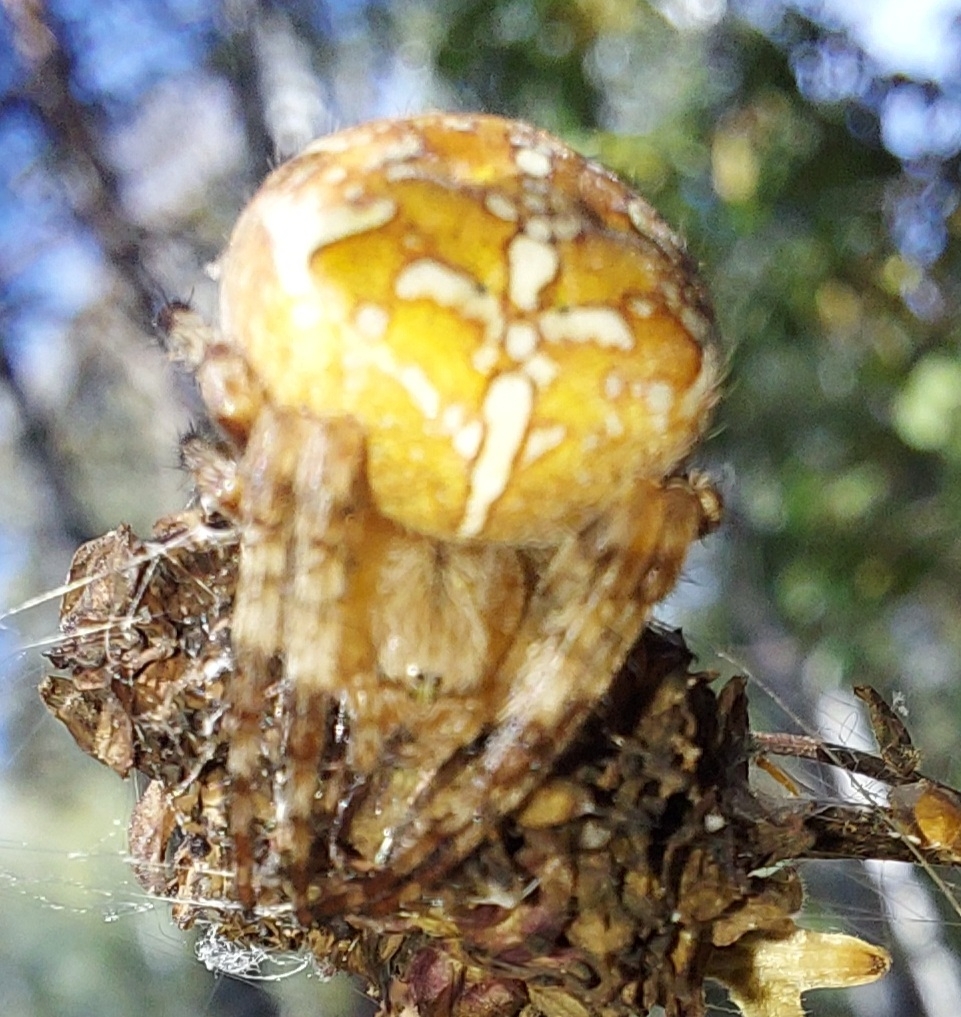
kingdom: Animalia
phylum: Arthropoda
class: Arachnida
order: Araneae
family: Araneidae
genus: Araneus
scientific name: Araneus diadematus
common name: Cross orbweaver
